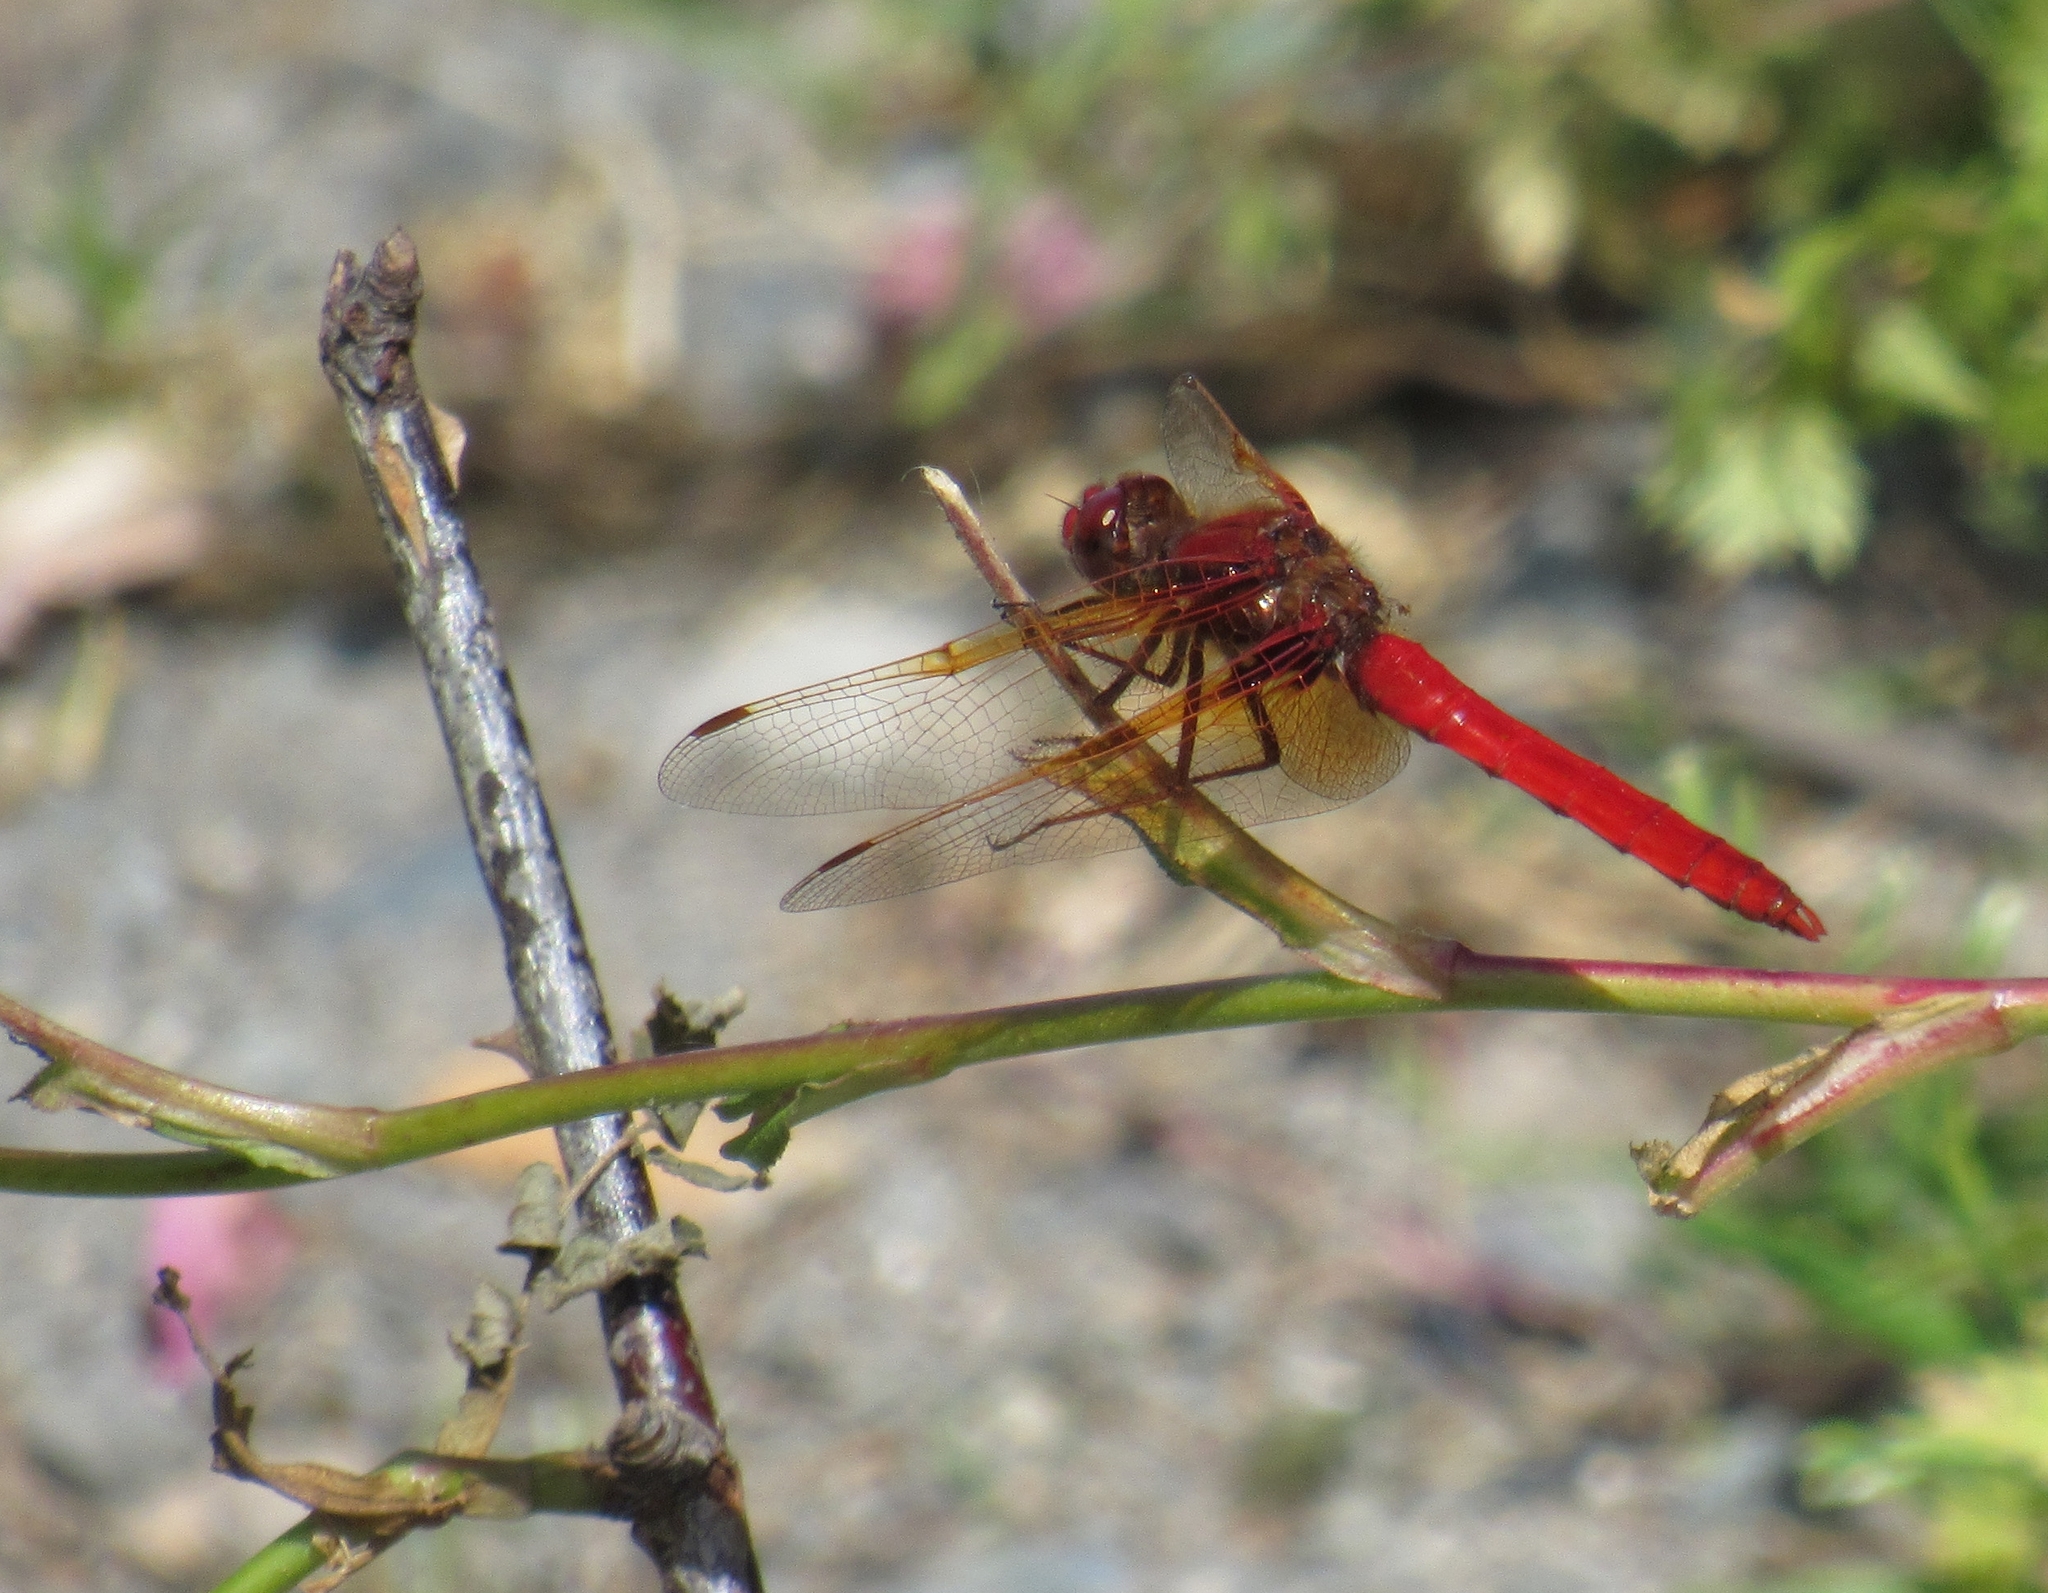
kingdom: Animalia
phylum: Arthropoda
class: Insecta
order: Odonata
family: Libellulidae
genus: Sympetrum
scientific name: Sympetrum illotum
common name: Cardinal meadowhawk
